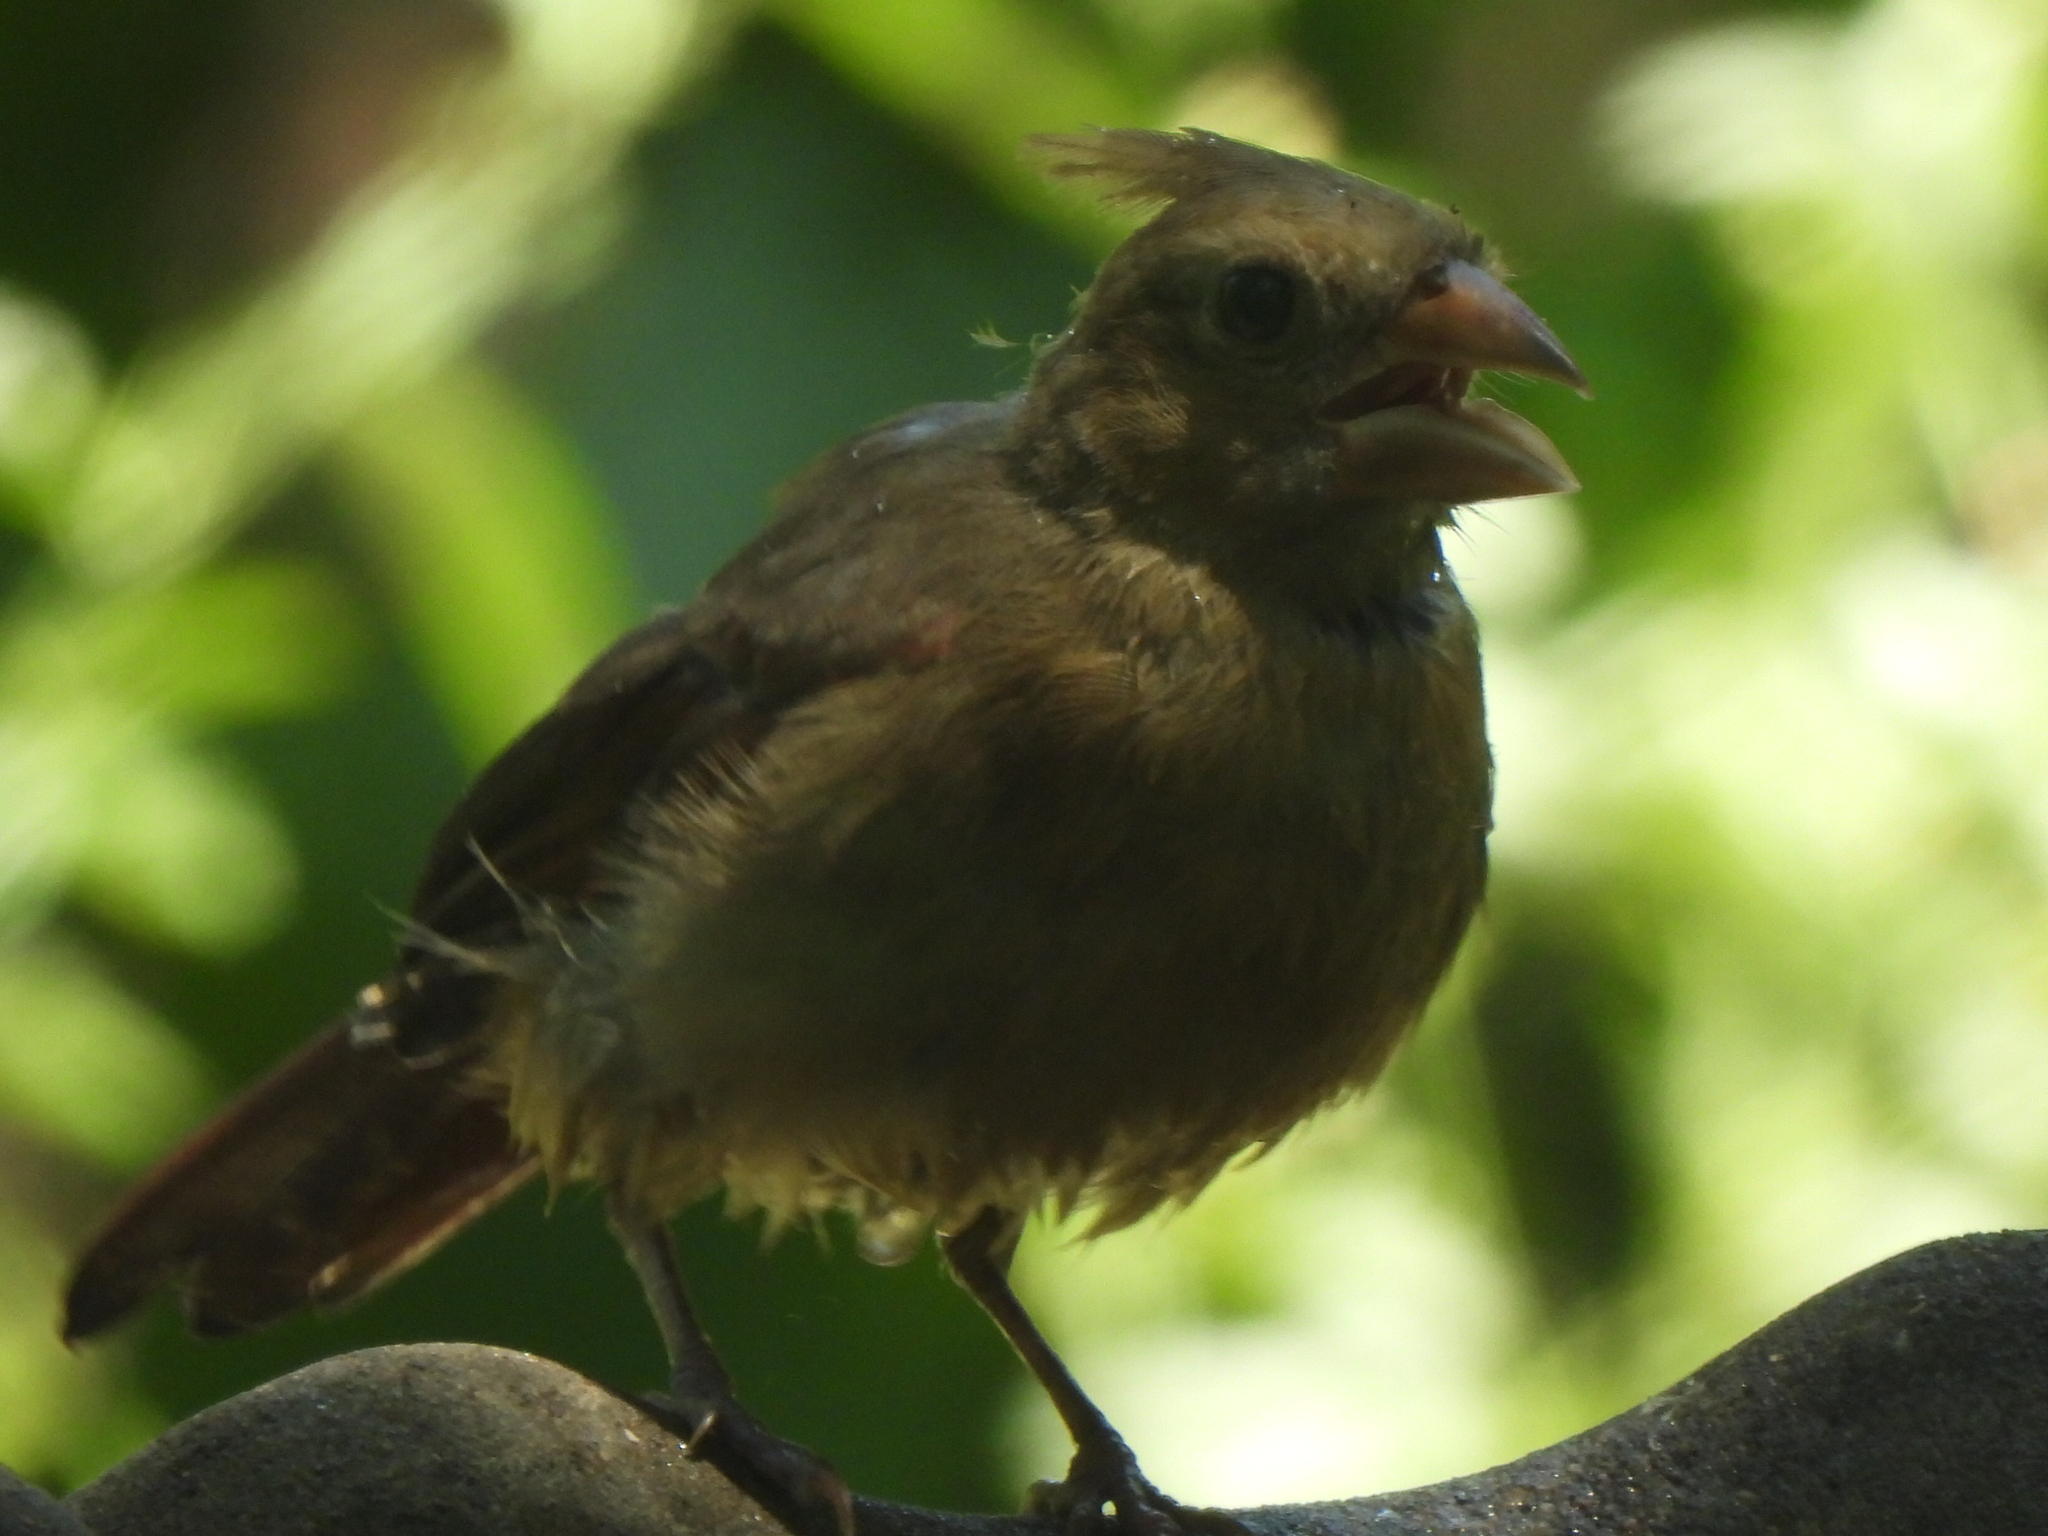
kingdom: Animalia
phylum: Chordata
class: Aves
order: Passeriformes
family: Cardinalidae
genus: Cardinalis
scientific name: Cardinalis cardinalis
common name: Northern cardinal
